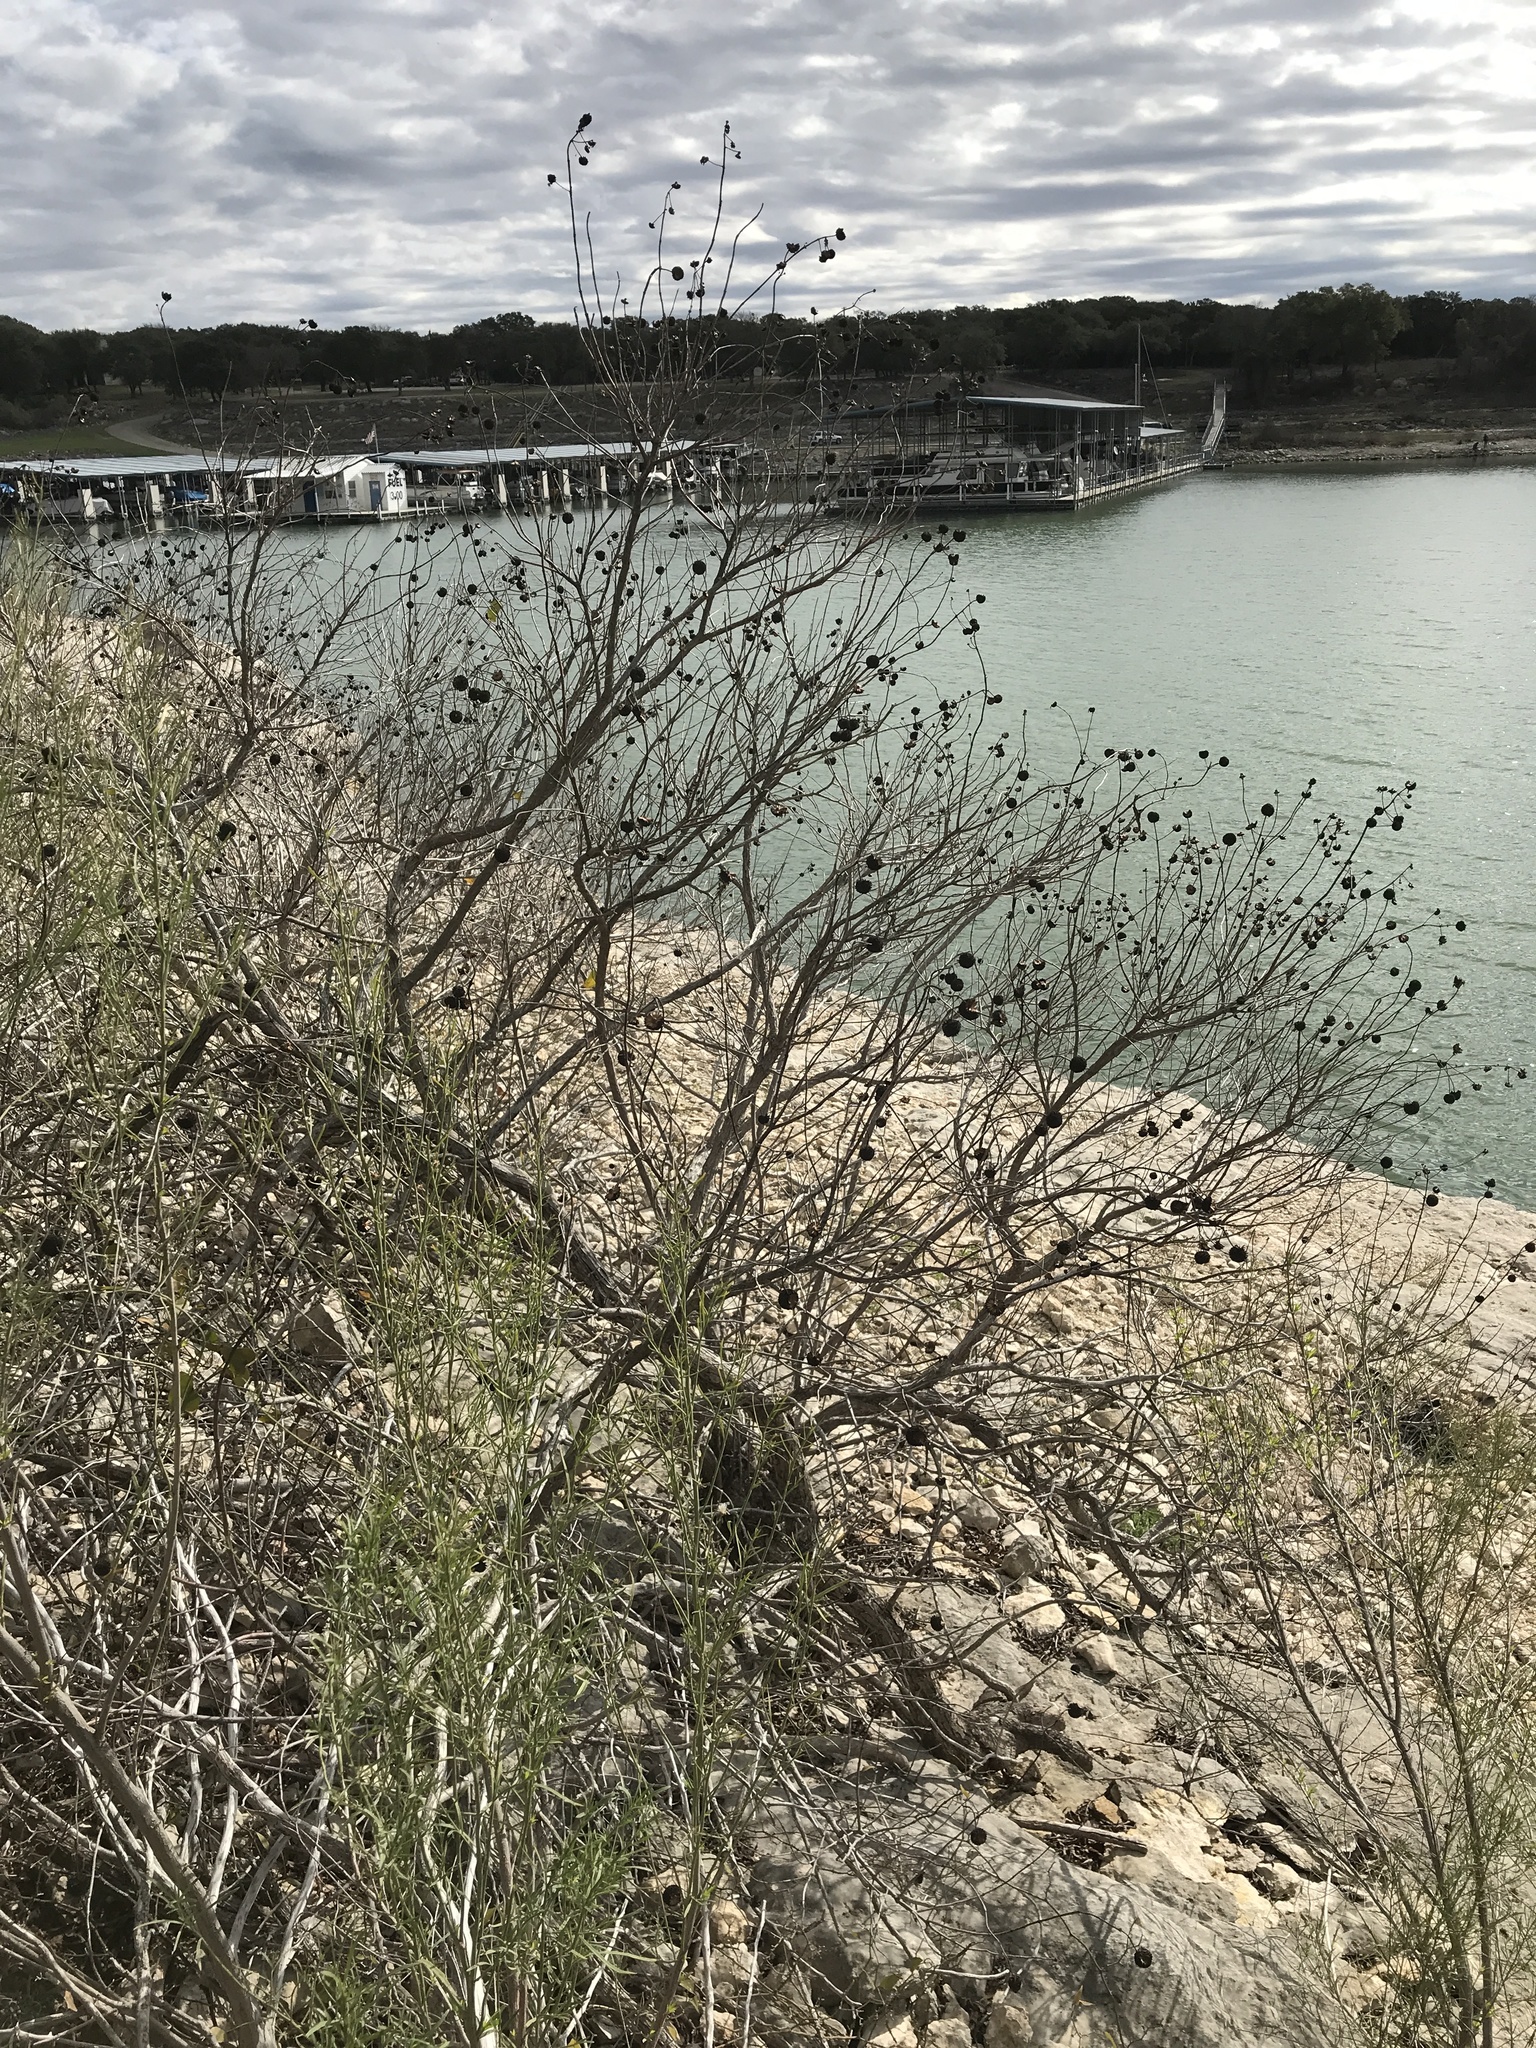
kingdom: Plantae
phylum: Tracheophyta
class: Magnoliopsida
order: Gentianales
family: Rubiaceae
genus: Cephalanthus
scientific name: Cephalanthus occidentalis
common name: Button-willow
